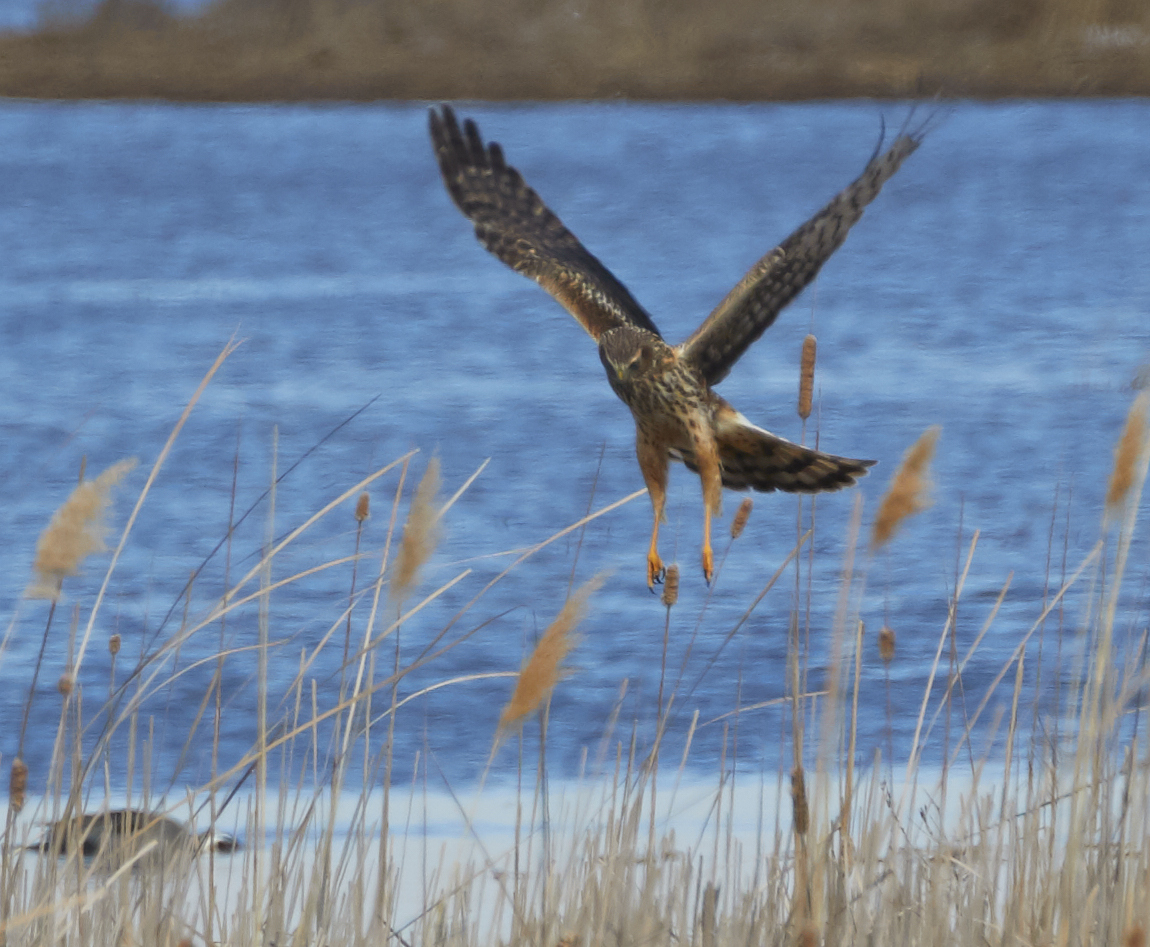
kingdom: Animalia
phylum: Chordata
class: Aves
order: Accipitriformes
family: Accipitridae
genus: Circus
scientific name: Circus cyaneus
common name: Hen harrier
